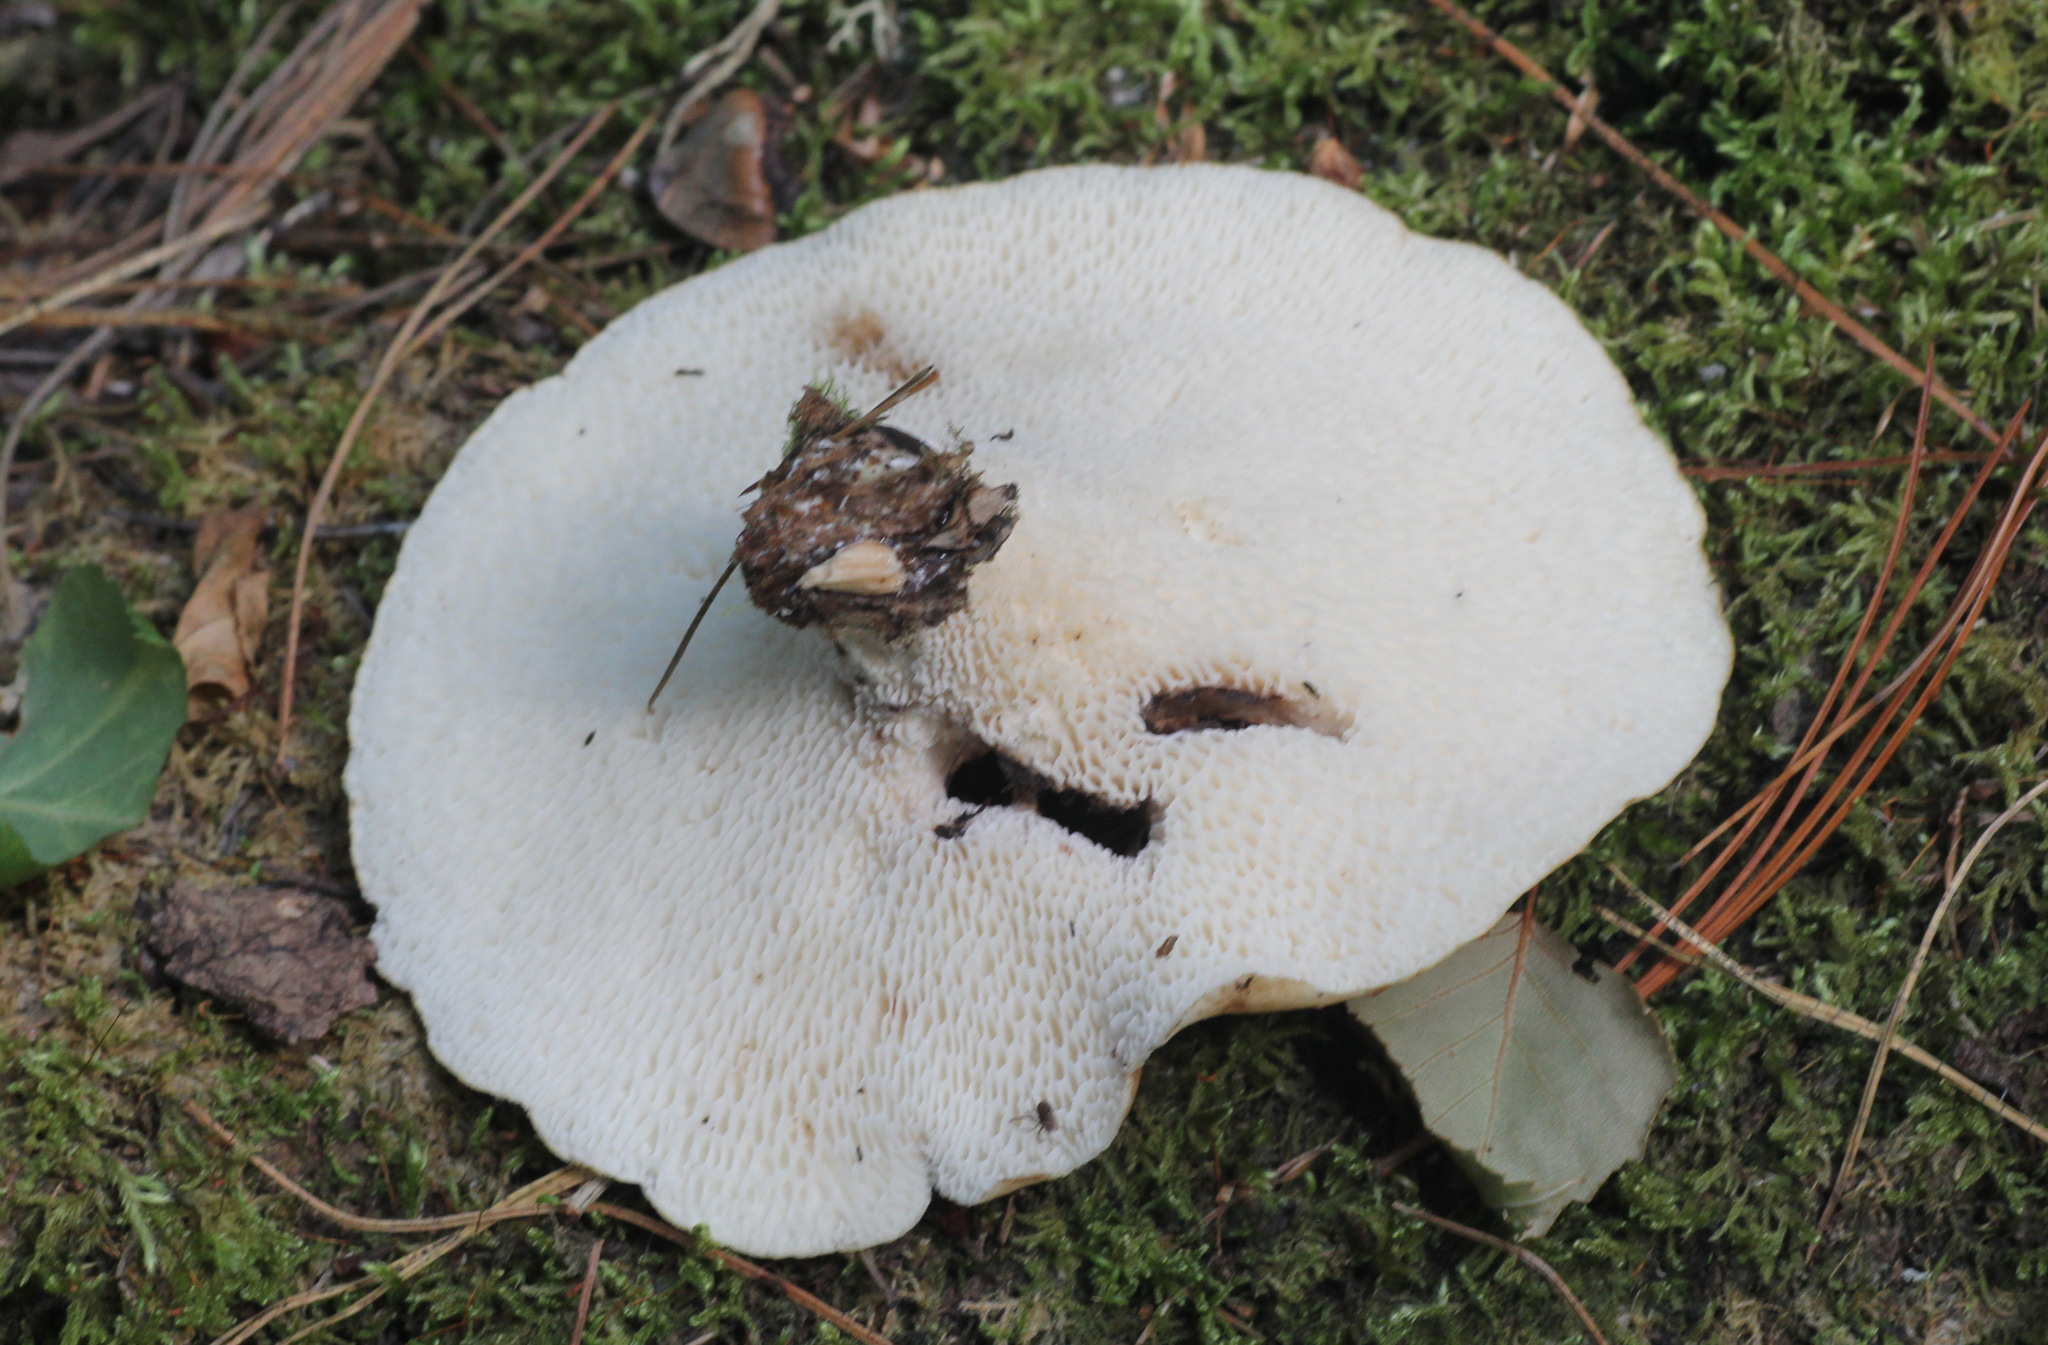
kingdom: Fungi
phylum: Basidiomycota
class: Agaricomycetes
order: Polyporales
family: Polyporaceae
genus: Cerioporus
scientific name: Cerioporus squamosus
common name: Dryad's saddle
